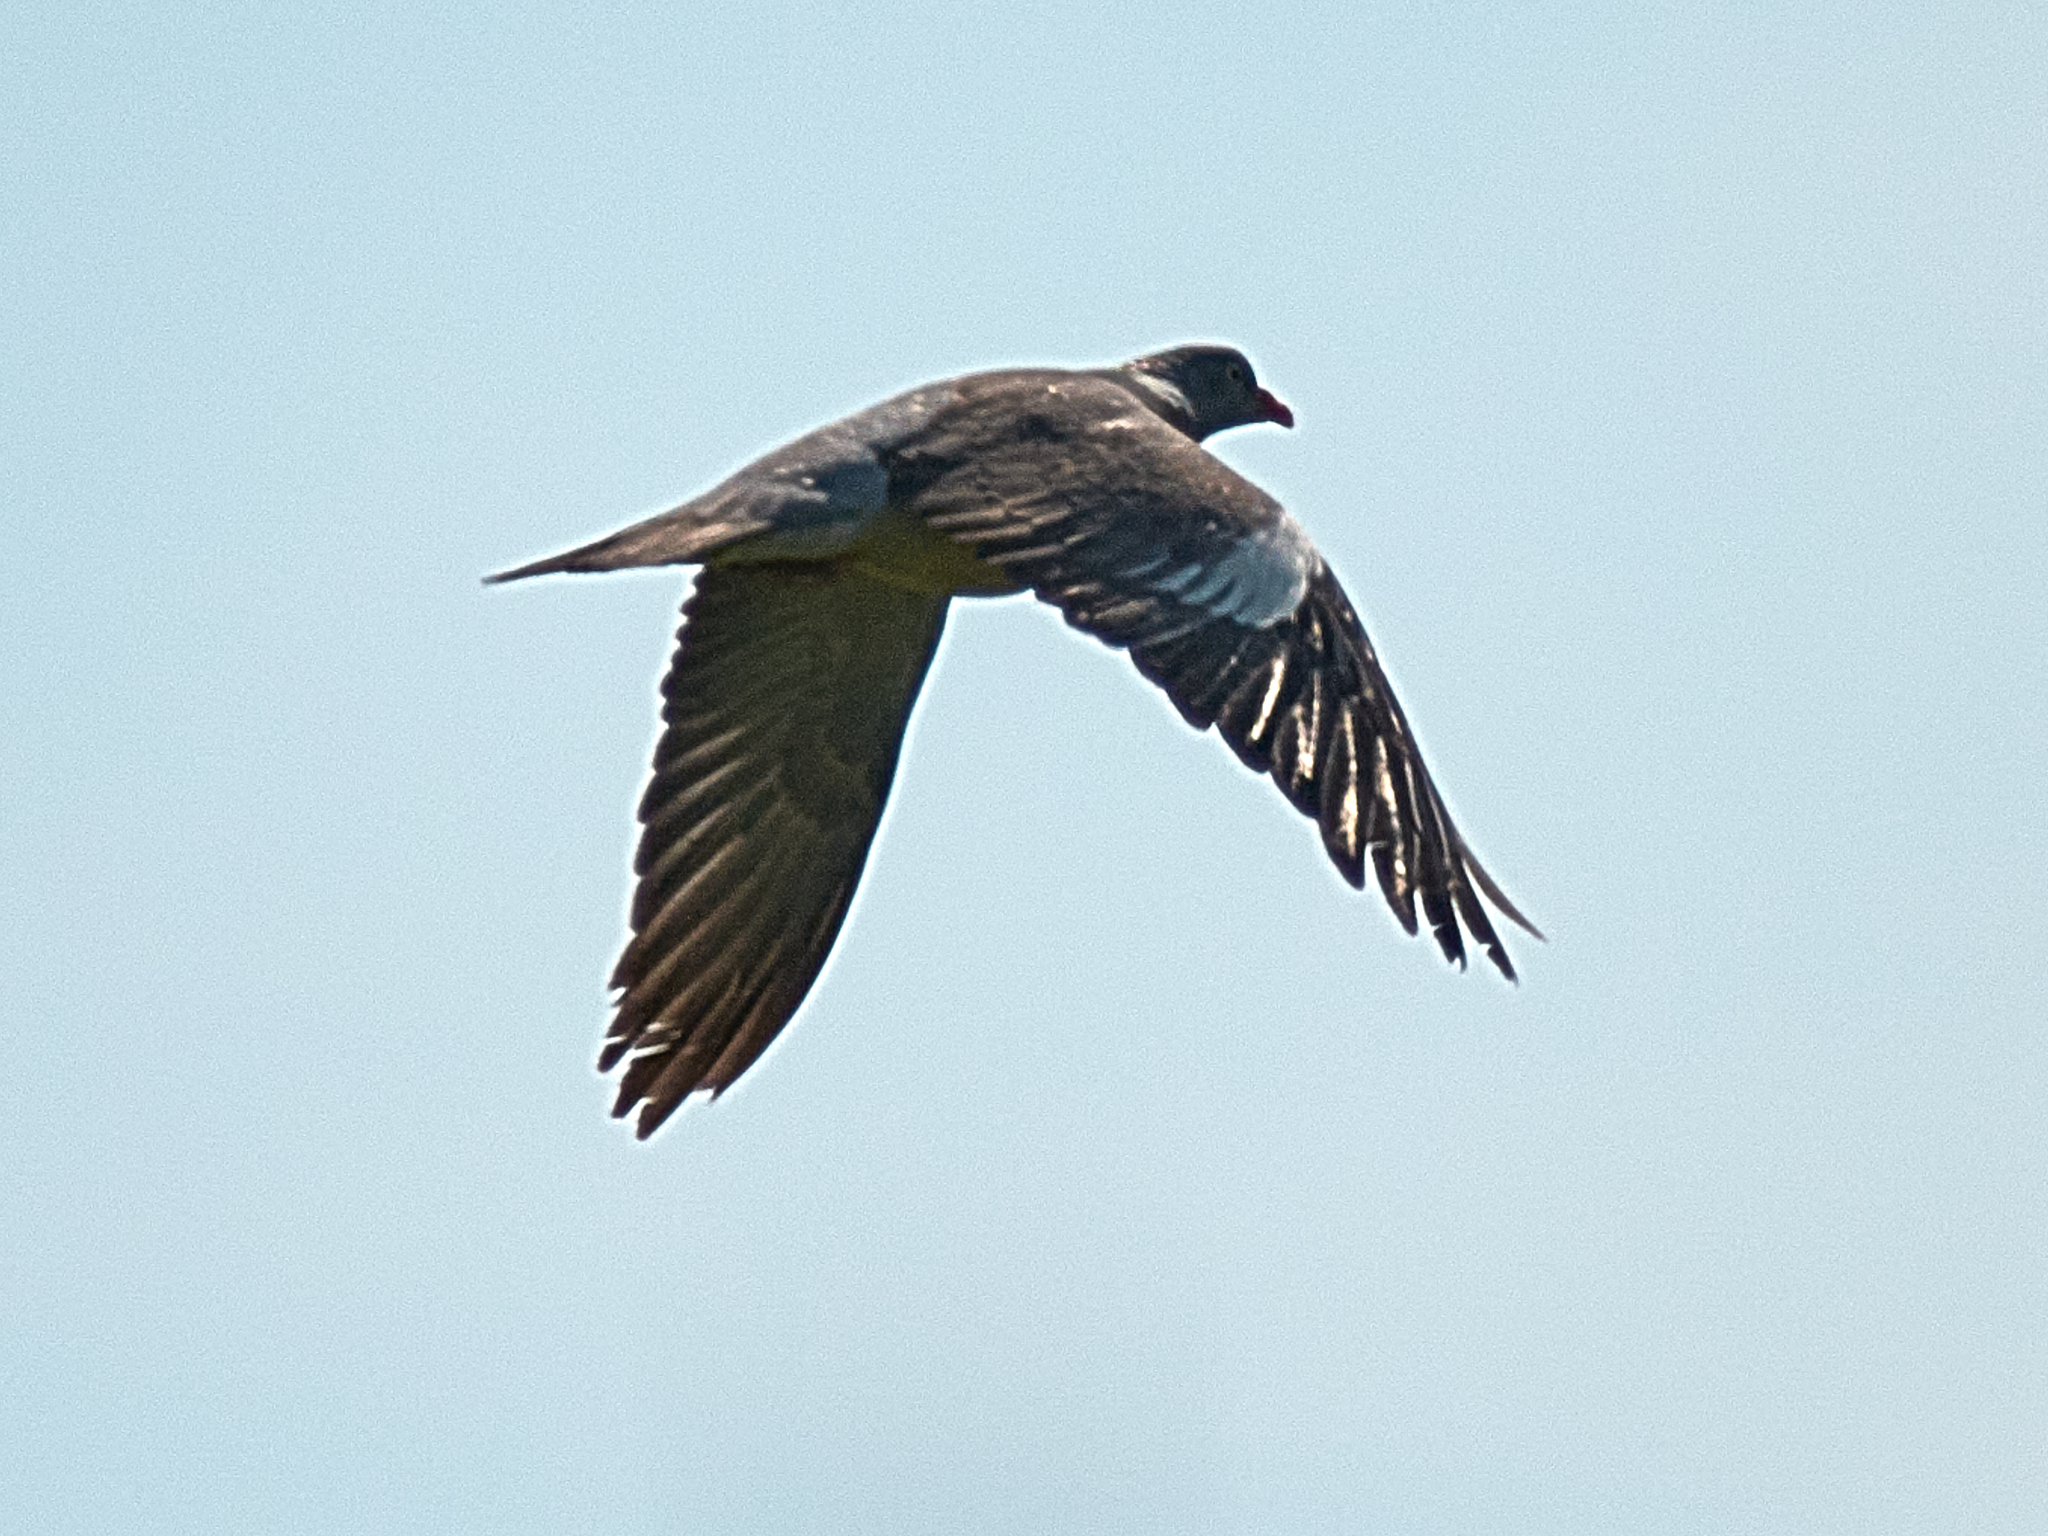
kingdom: Animalia
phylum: Chordata
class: Aves
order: Columbiformes
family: Columbidae
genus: Columba
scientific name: Columba palumbus
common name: Common wood pigeon
